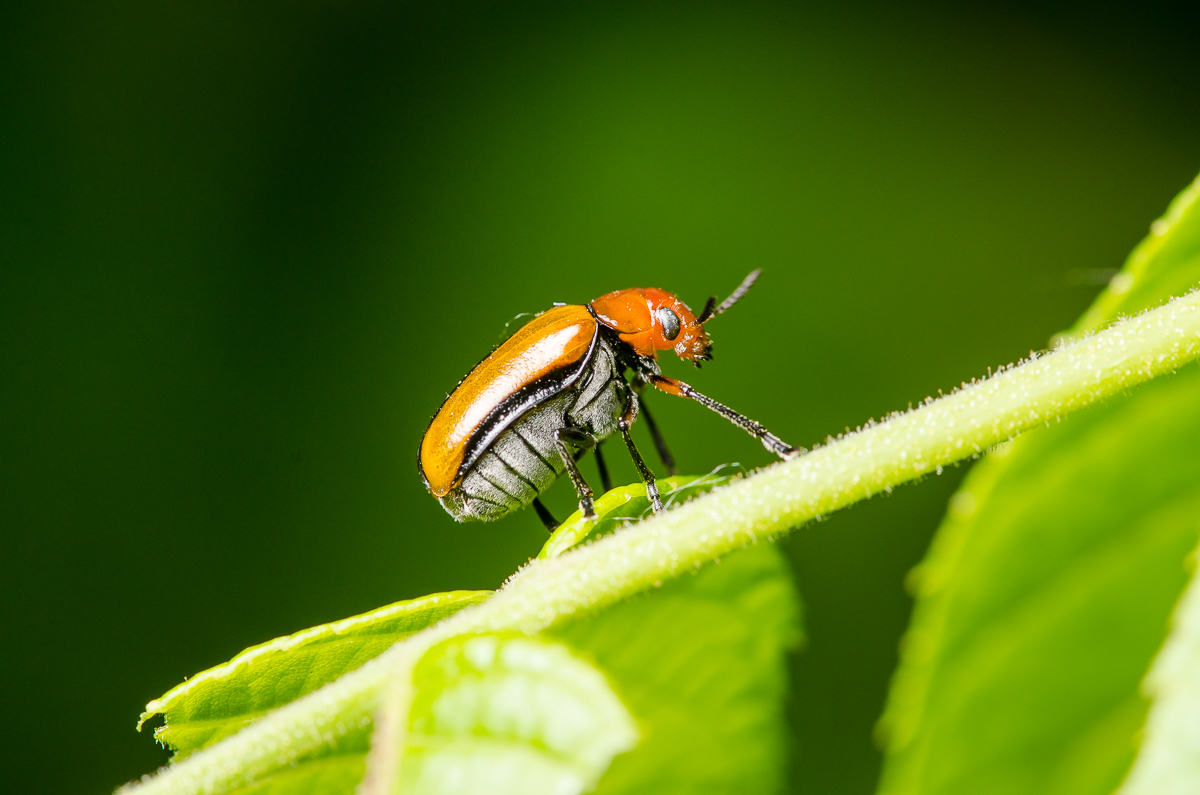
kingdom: Animalia
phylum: Arthropoda
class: Insecta
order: Coleoptera
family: Chrysomelidae
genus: Anomoea
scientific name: Anomoea laticlavia
